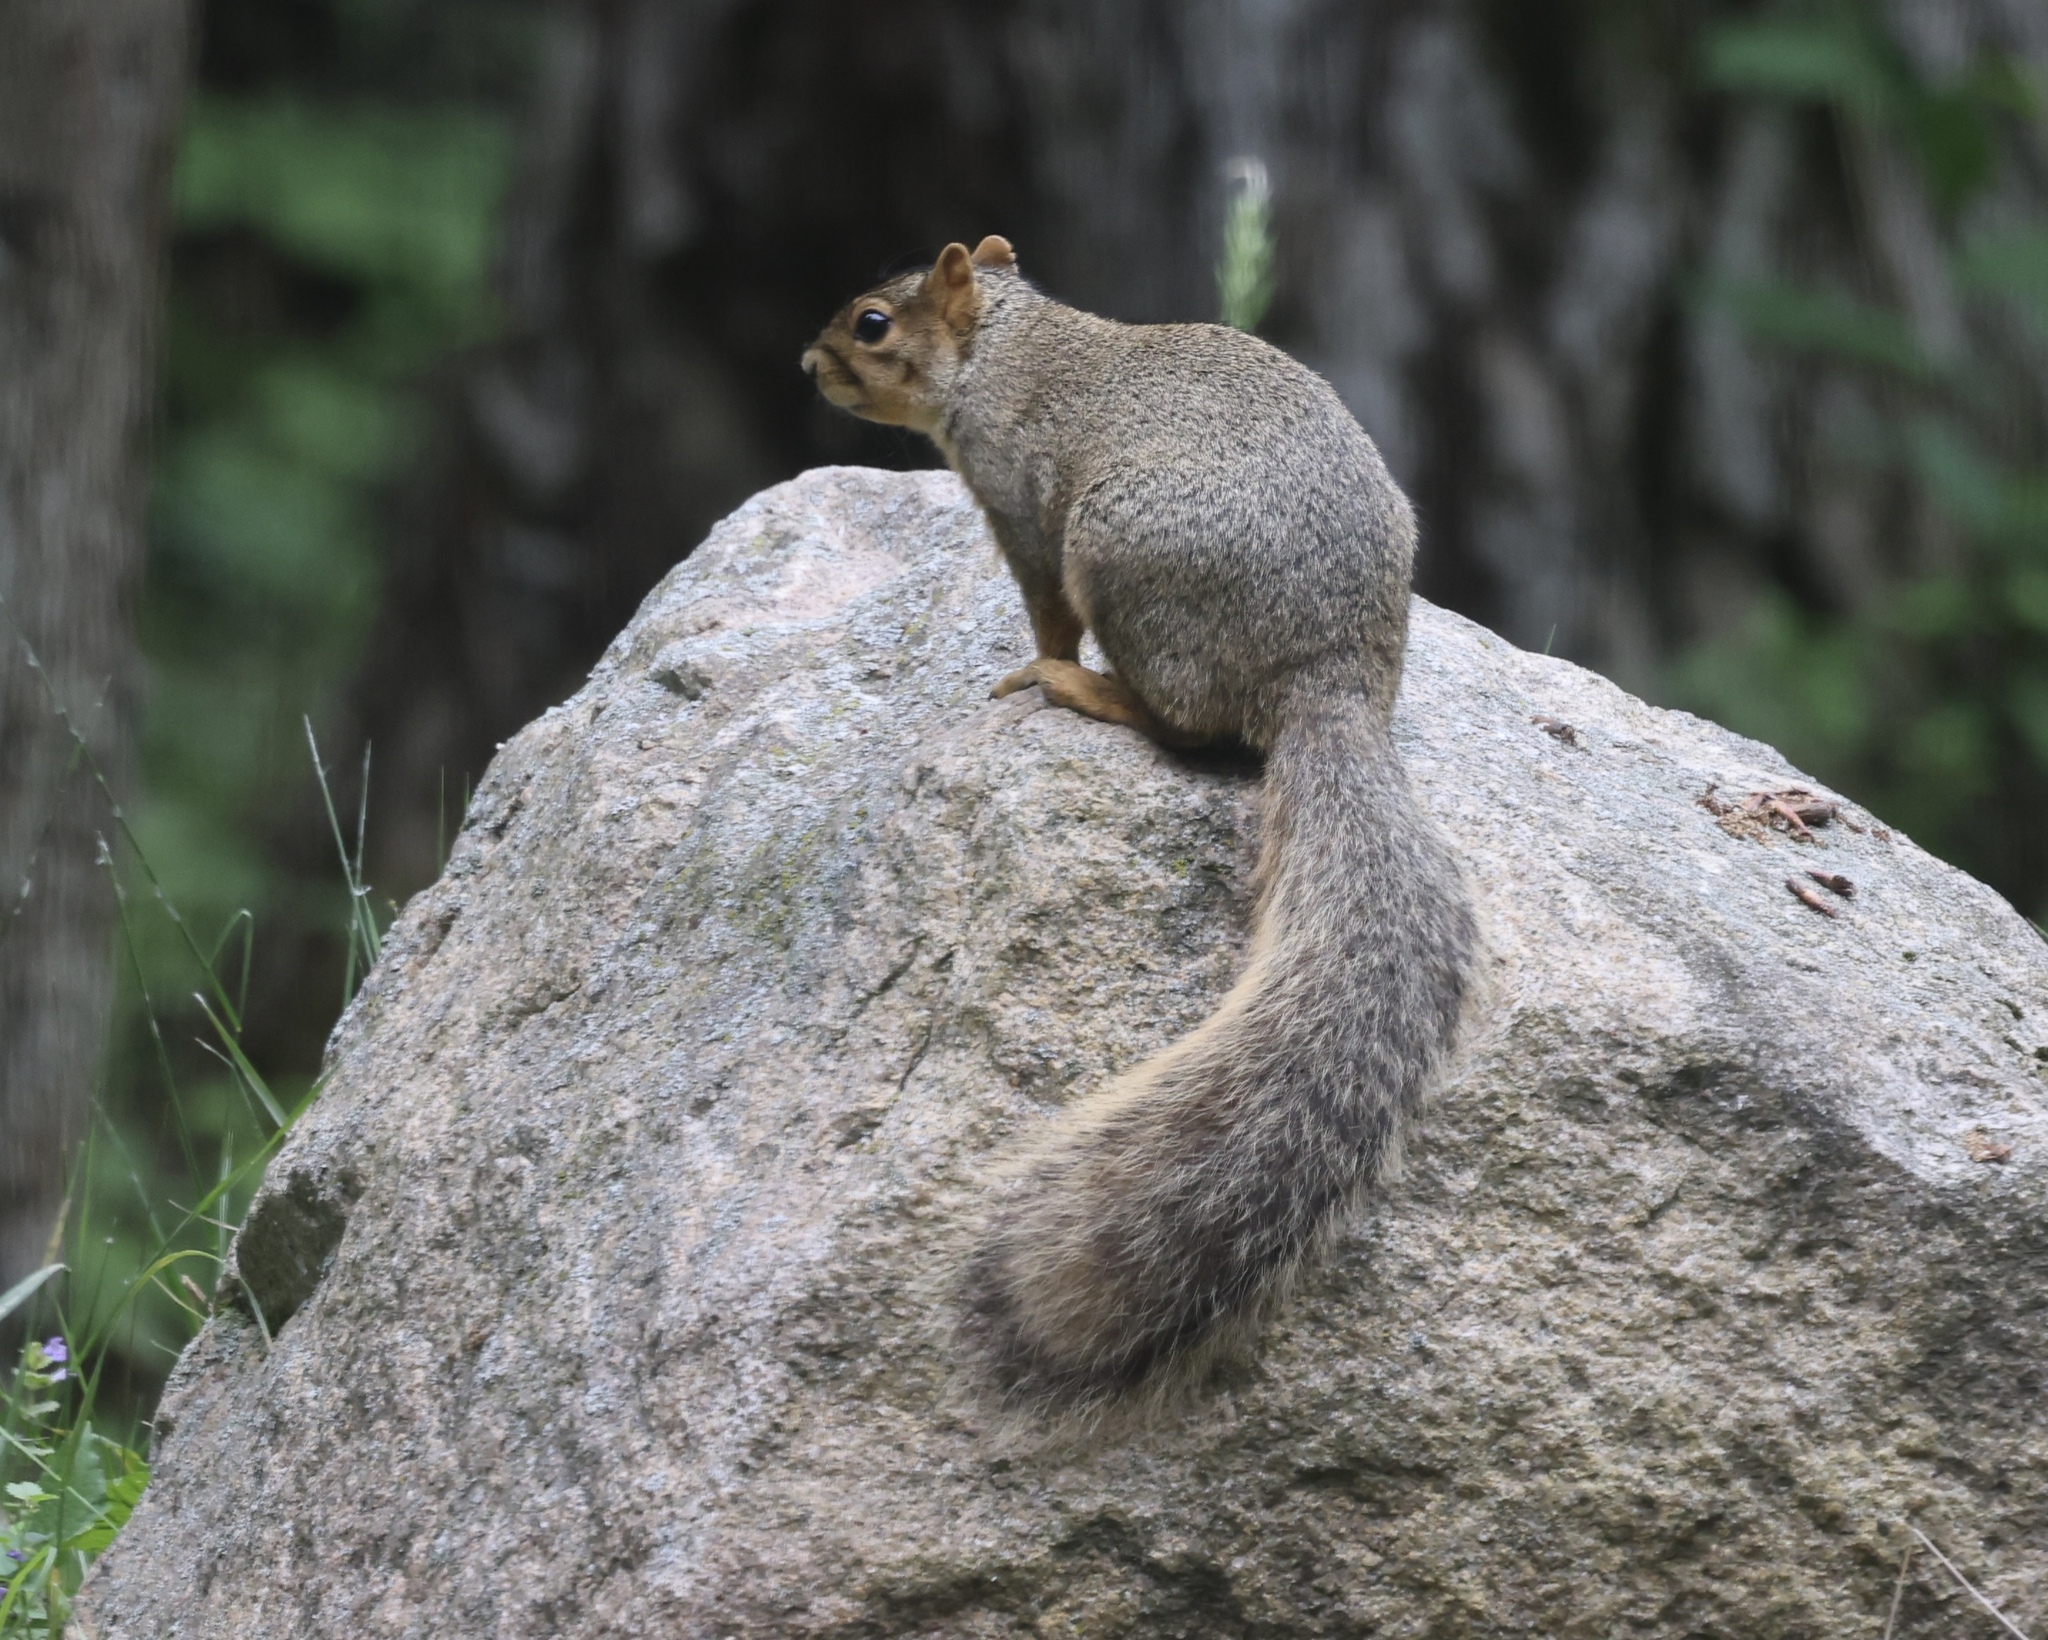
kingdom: Animalia
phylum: Chordata
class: Mammalia
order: Rodentia
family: Sciuridae
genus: Sciurus
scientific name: Sciurus niger
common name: Fox squirrel
